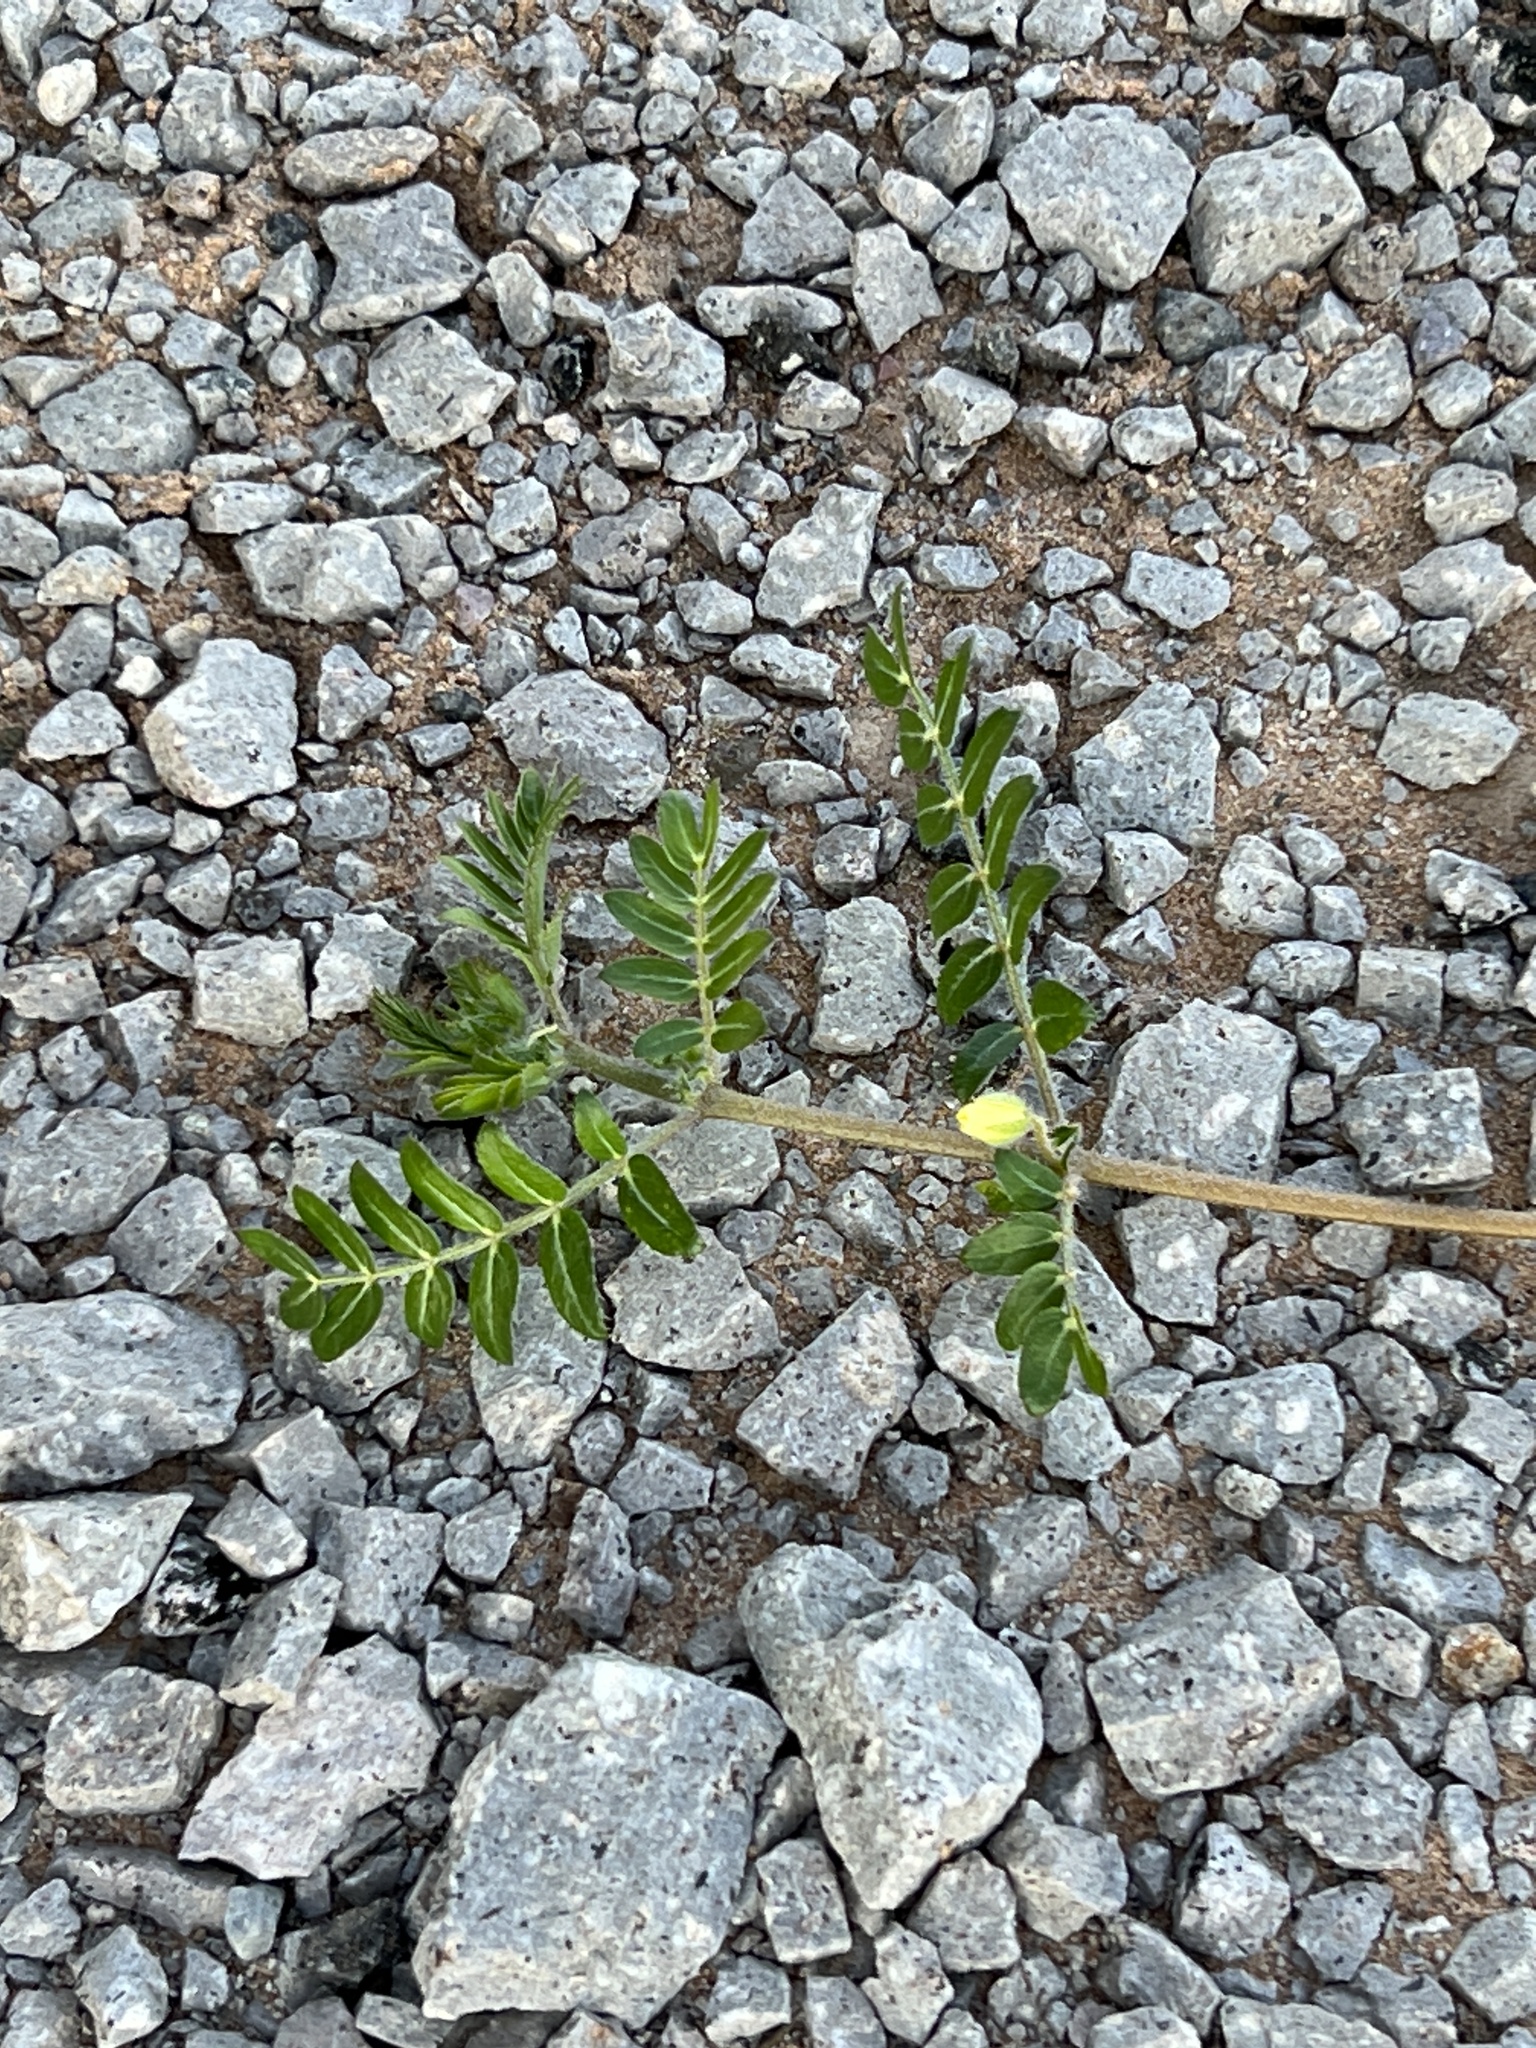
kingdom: Plantae
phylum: Tracheophyta
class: Magnoliopsida
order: Zygophyllales
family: Zygophyllaceae
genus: Tribulus
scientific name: Tribulus terrestris
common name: Puncturevine
